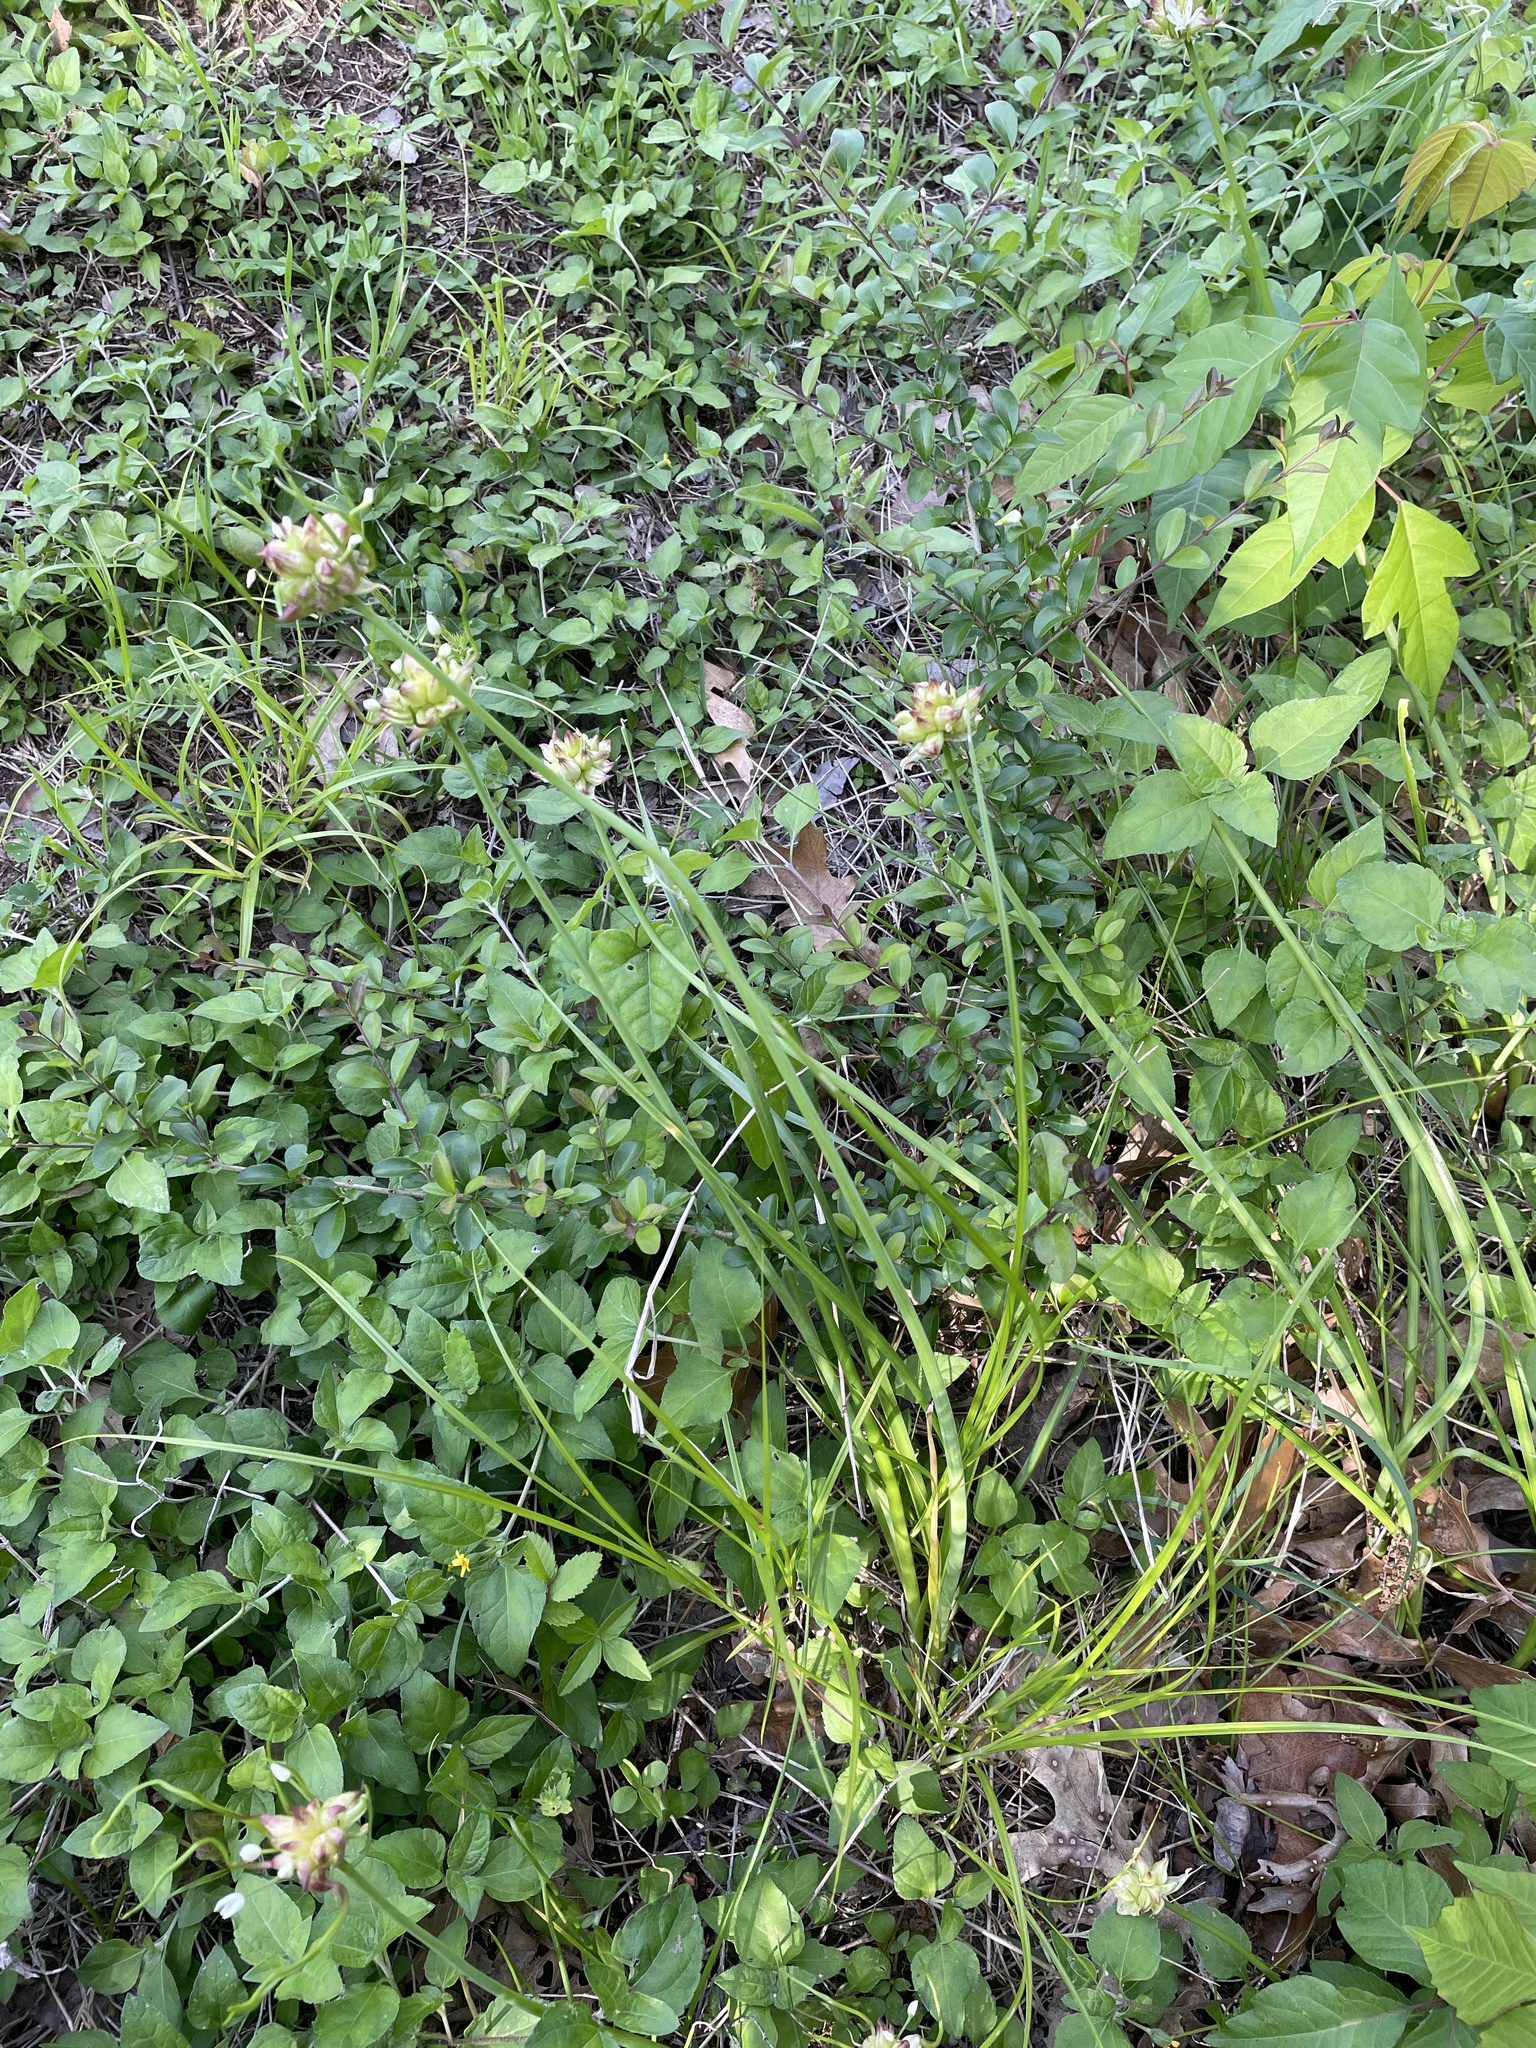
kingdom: Plantae
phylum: Tracheophyta
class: Liliopsida
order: Asparagales
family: Amaryllidaceae
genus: Allium
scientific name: Allium canadense
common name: Meadow garlic
